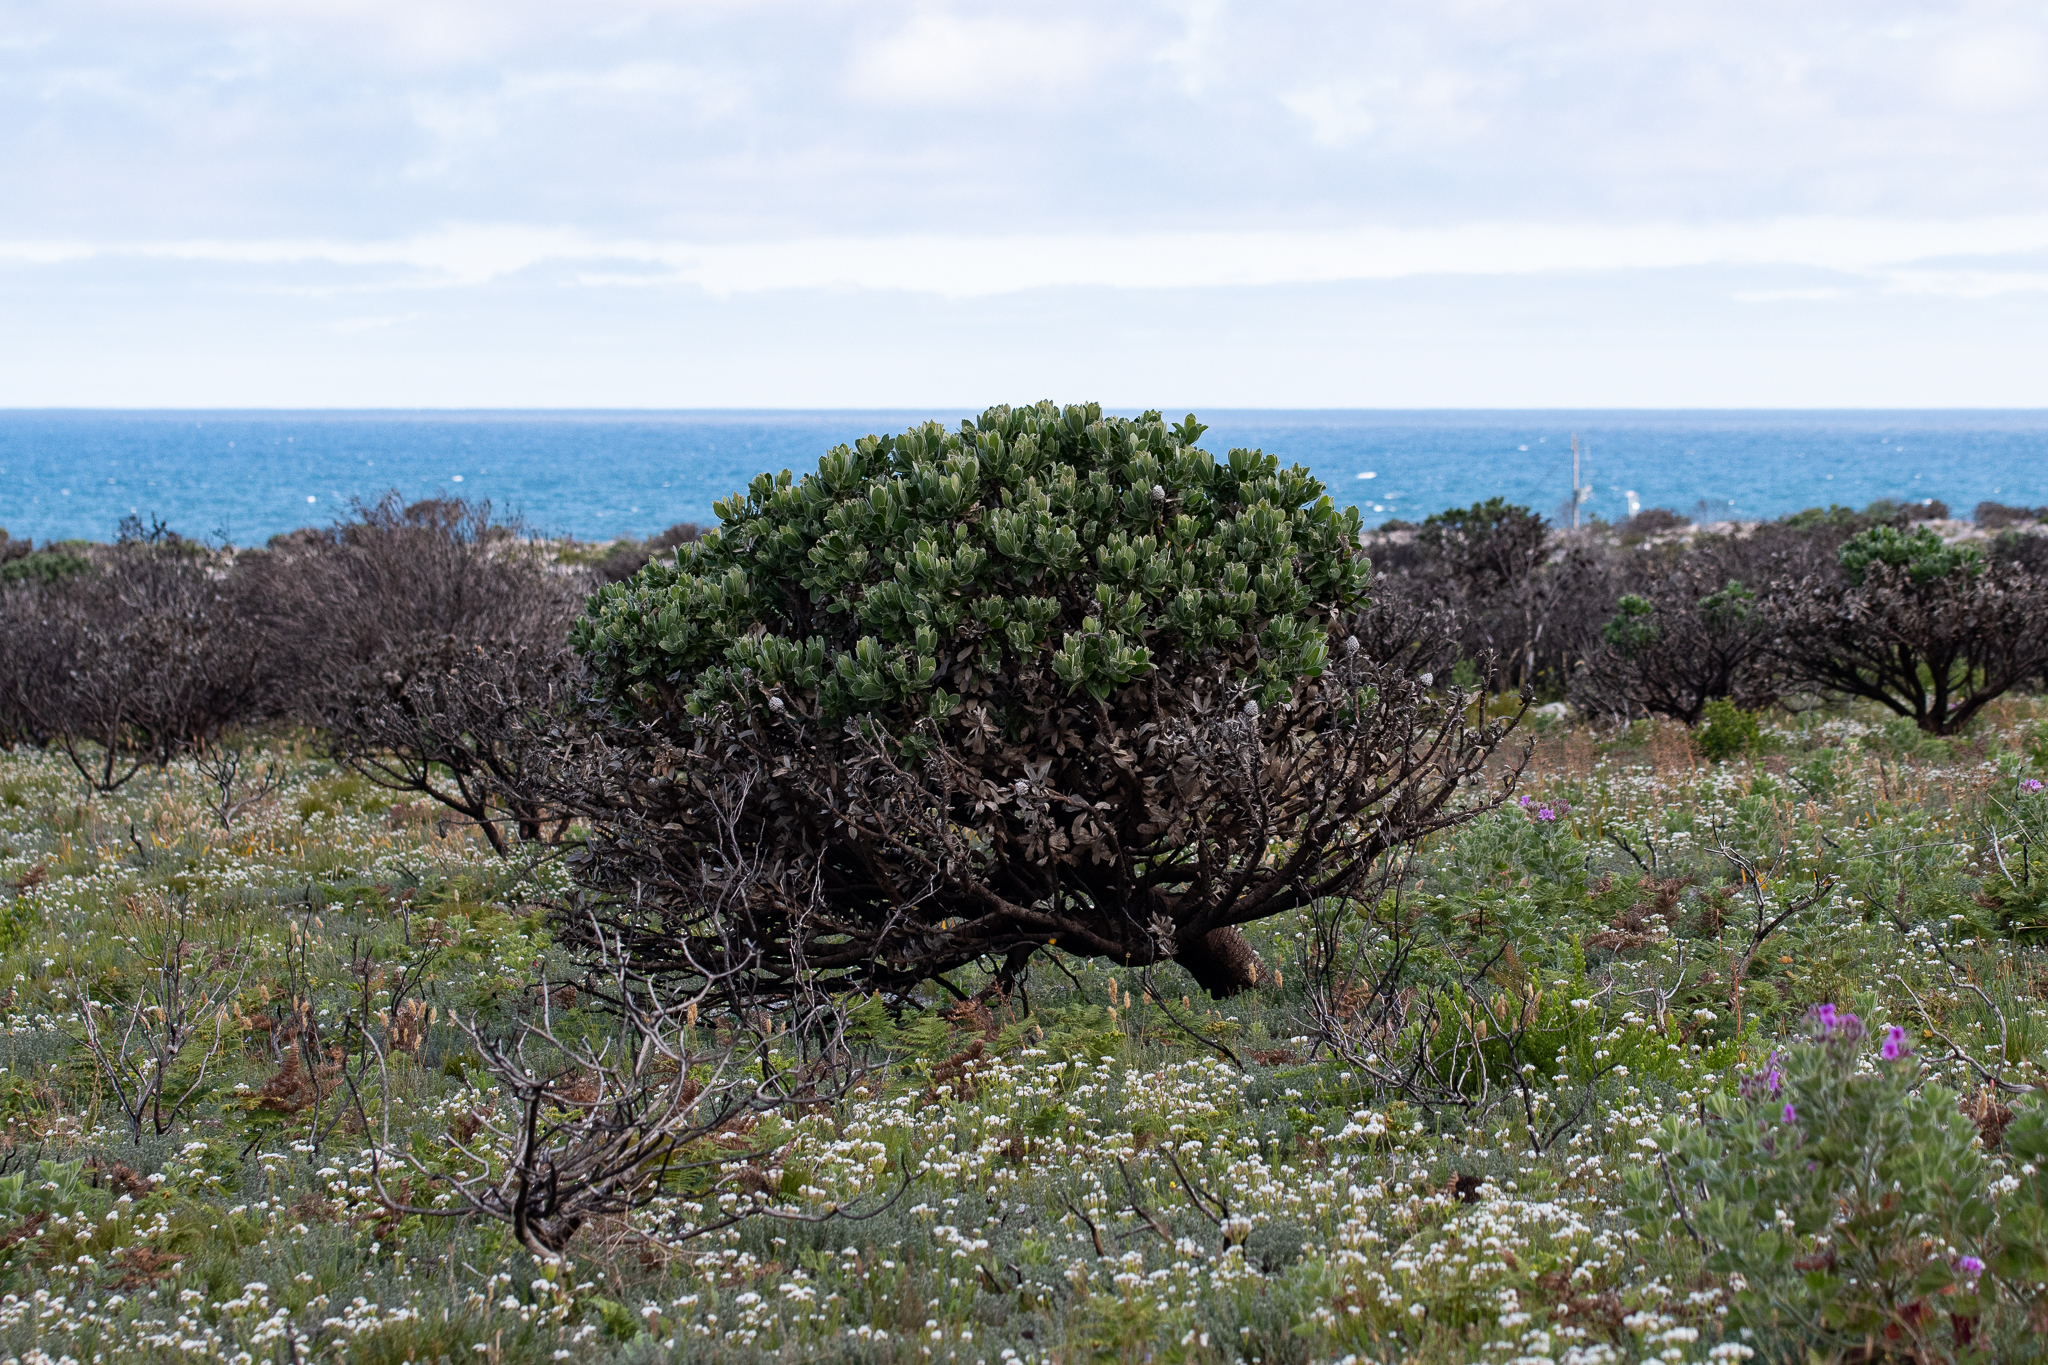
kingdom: Plantae
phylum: Tracheophyta
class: Magnoliopsida
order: Proteales
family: Proteaceae
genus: Leucospermum
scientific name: Leucospermum conocarpodendron
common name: Tree pincushion
